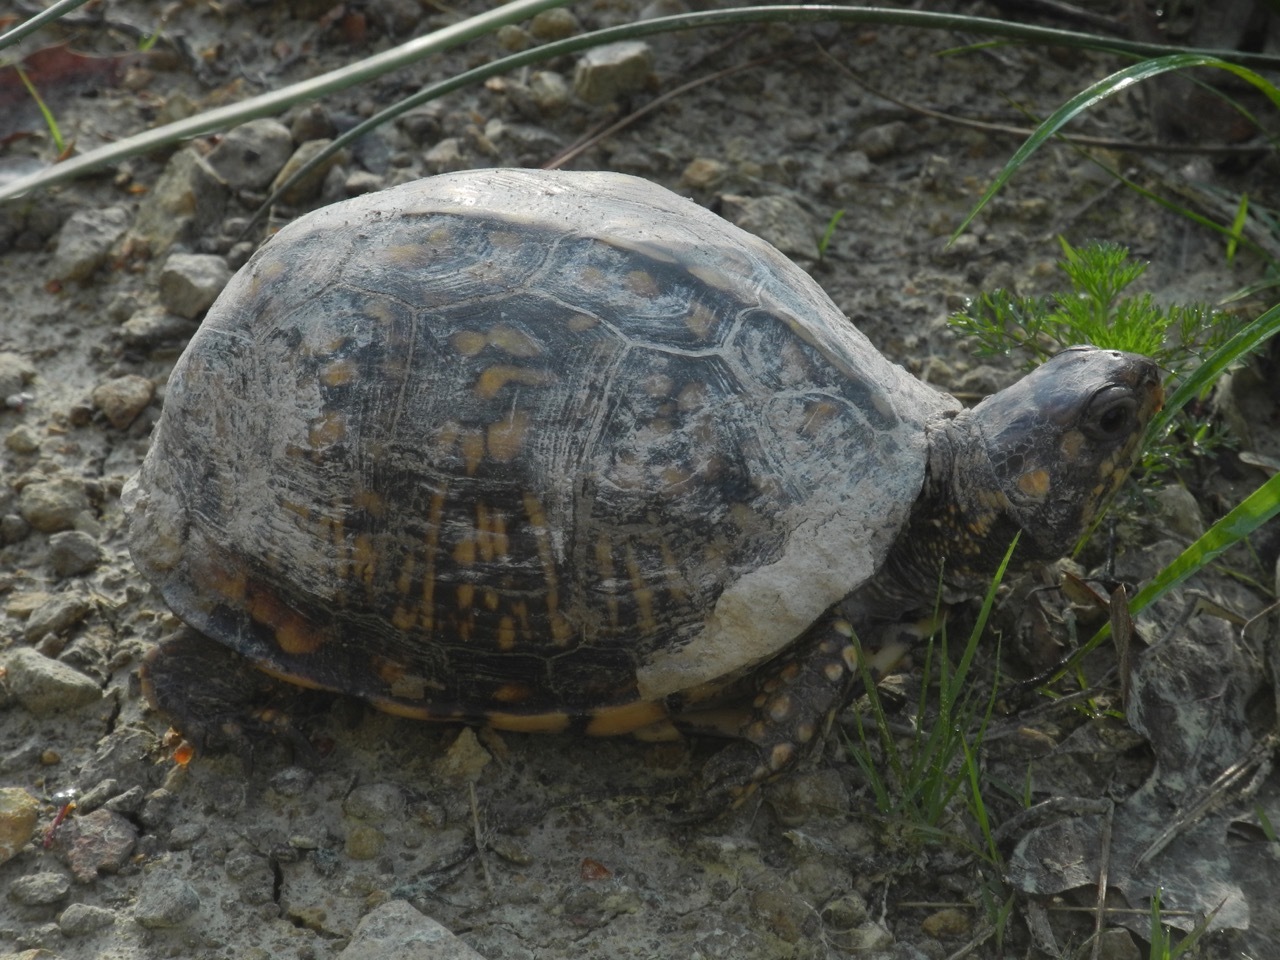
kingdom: Animalia
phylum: Chordata
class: Testudines
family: Emydidae
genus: Terrapene
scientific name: Terrapene carolina
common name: Common box turtle
